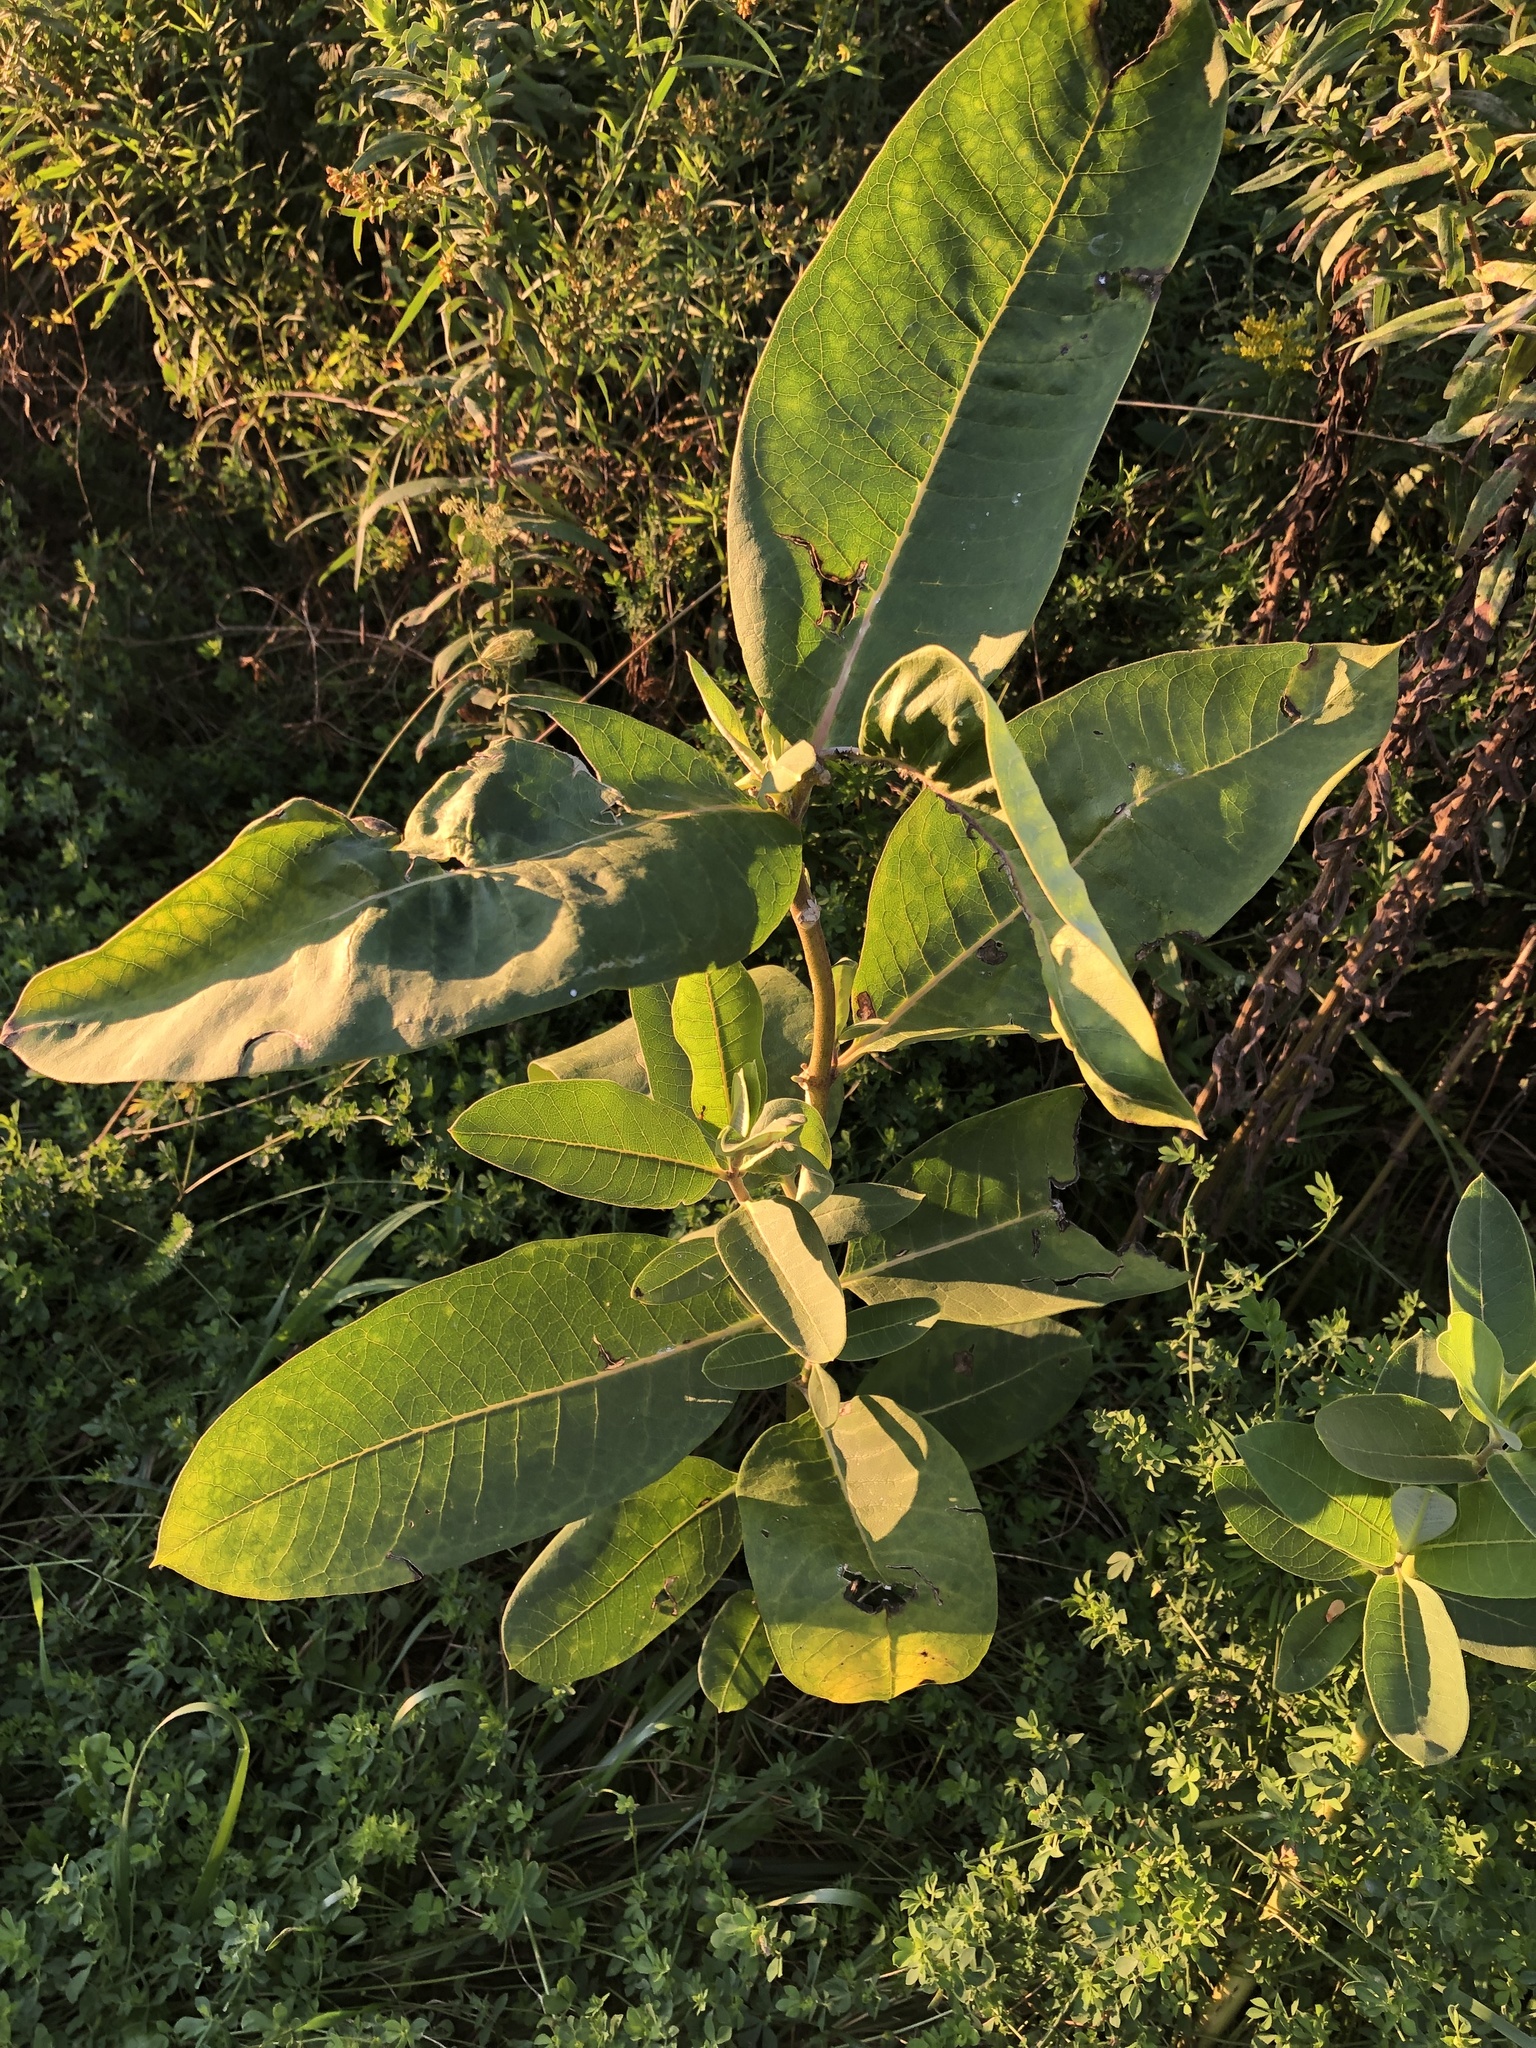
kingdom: Plantae
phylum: Tracheophyta
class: Magnoliopsida
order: Gentianales
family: Apocynaceae
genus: Asclepias
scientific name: Asclepias syriaca
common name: Common milkweed
